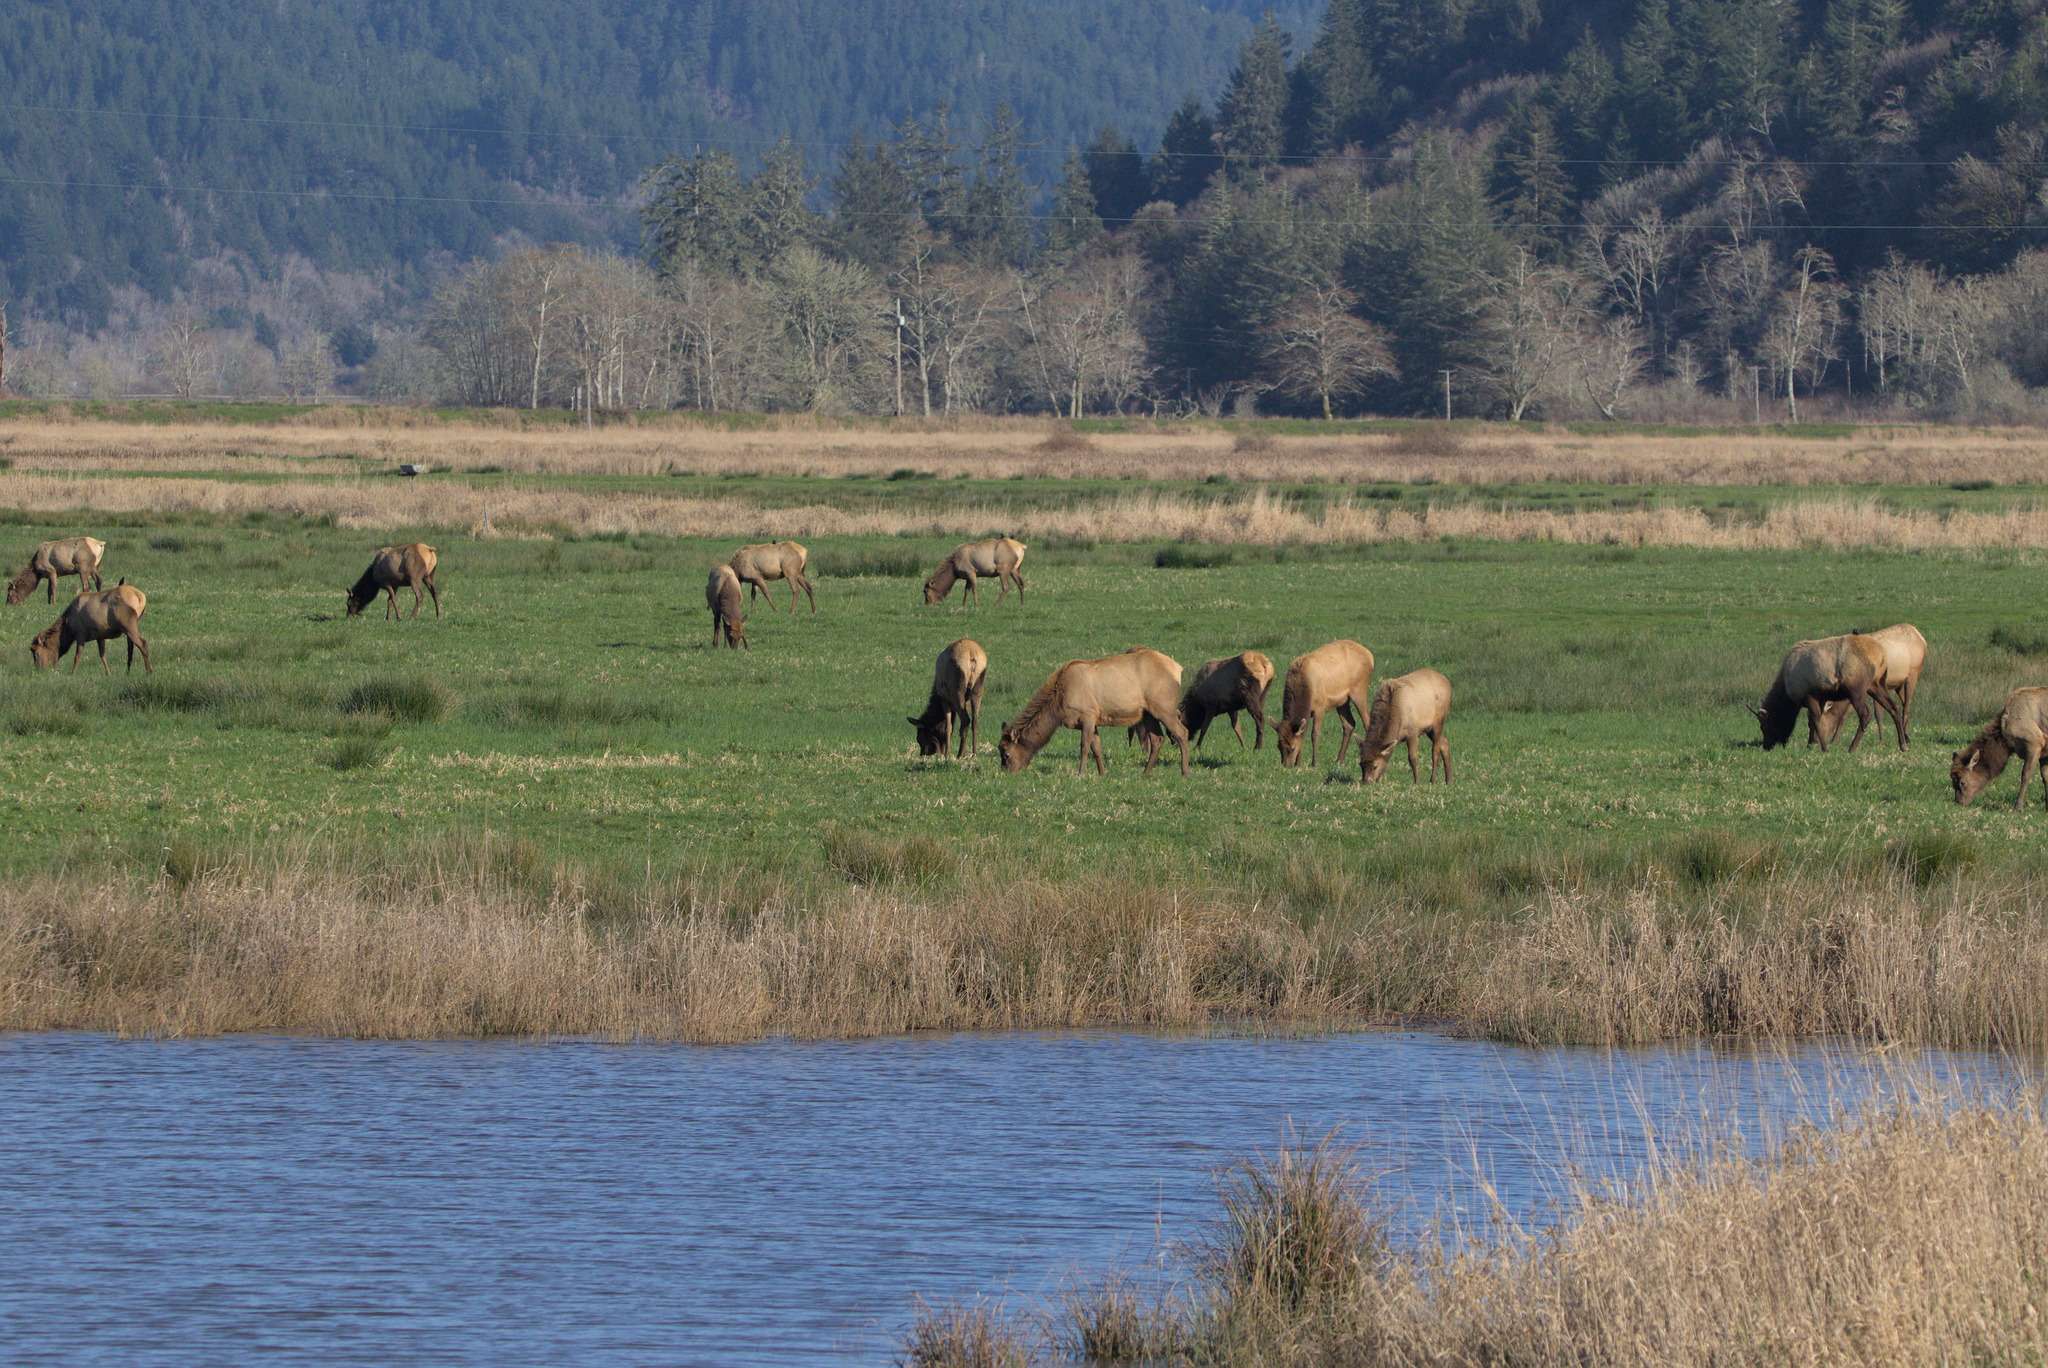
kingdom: Animalia
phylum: Chordata
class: Mammalia
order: Artiodactyla
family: Cervidae
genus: Cervus
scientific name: Cervus elaphus
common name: Red deer
